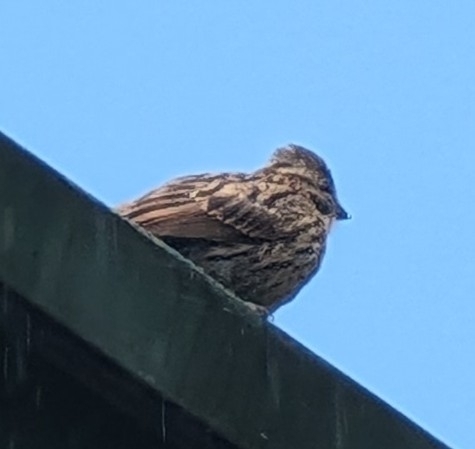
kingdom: Animalia
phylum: Chordata
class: Aves
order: Passeriformes
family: Passerellidae
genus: Zonotrichia
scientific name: Zonotrichia capensis
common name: Rufous-collared sparrow
